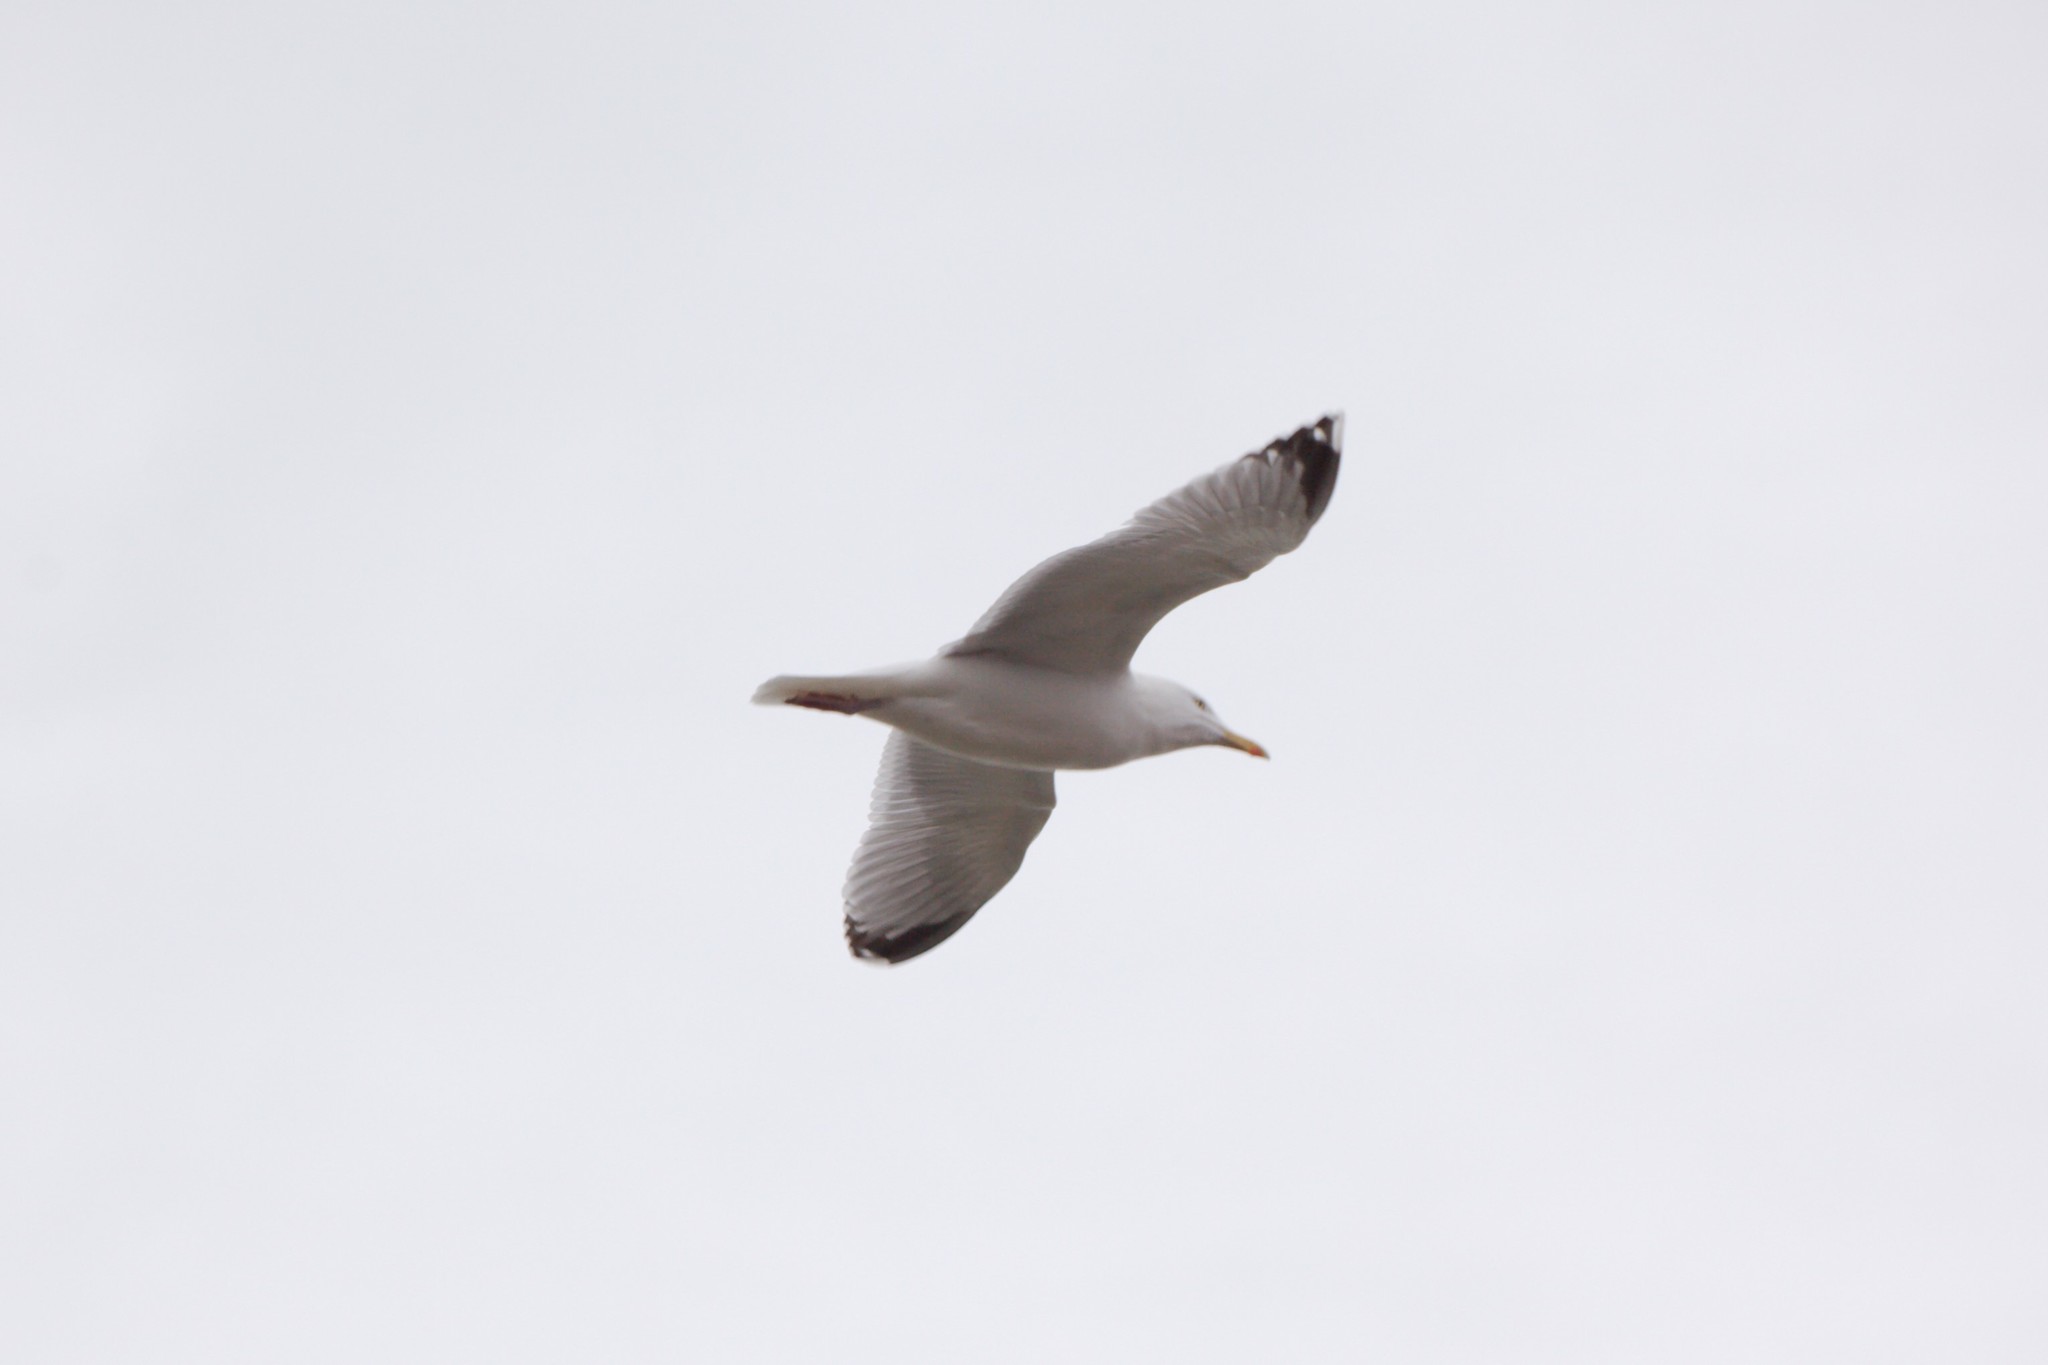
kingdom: Animalia
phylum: Chordata
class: Aves
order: Charadriiformes
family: Laridae
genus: Larus
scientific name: Larus argentatus
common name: Herring gull
